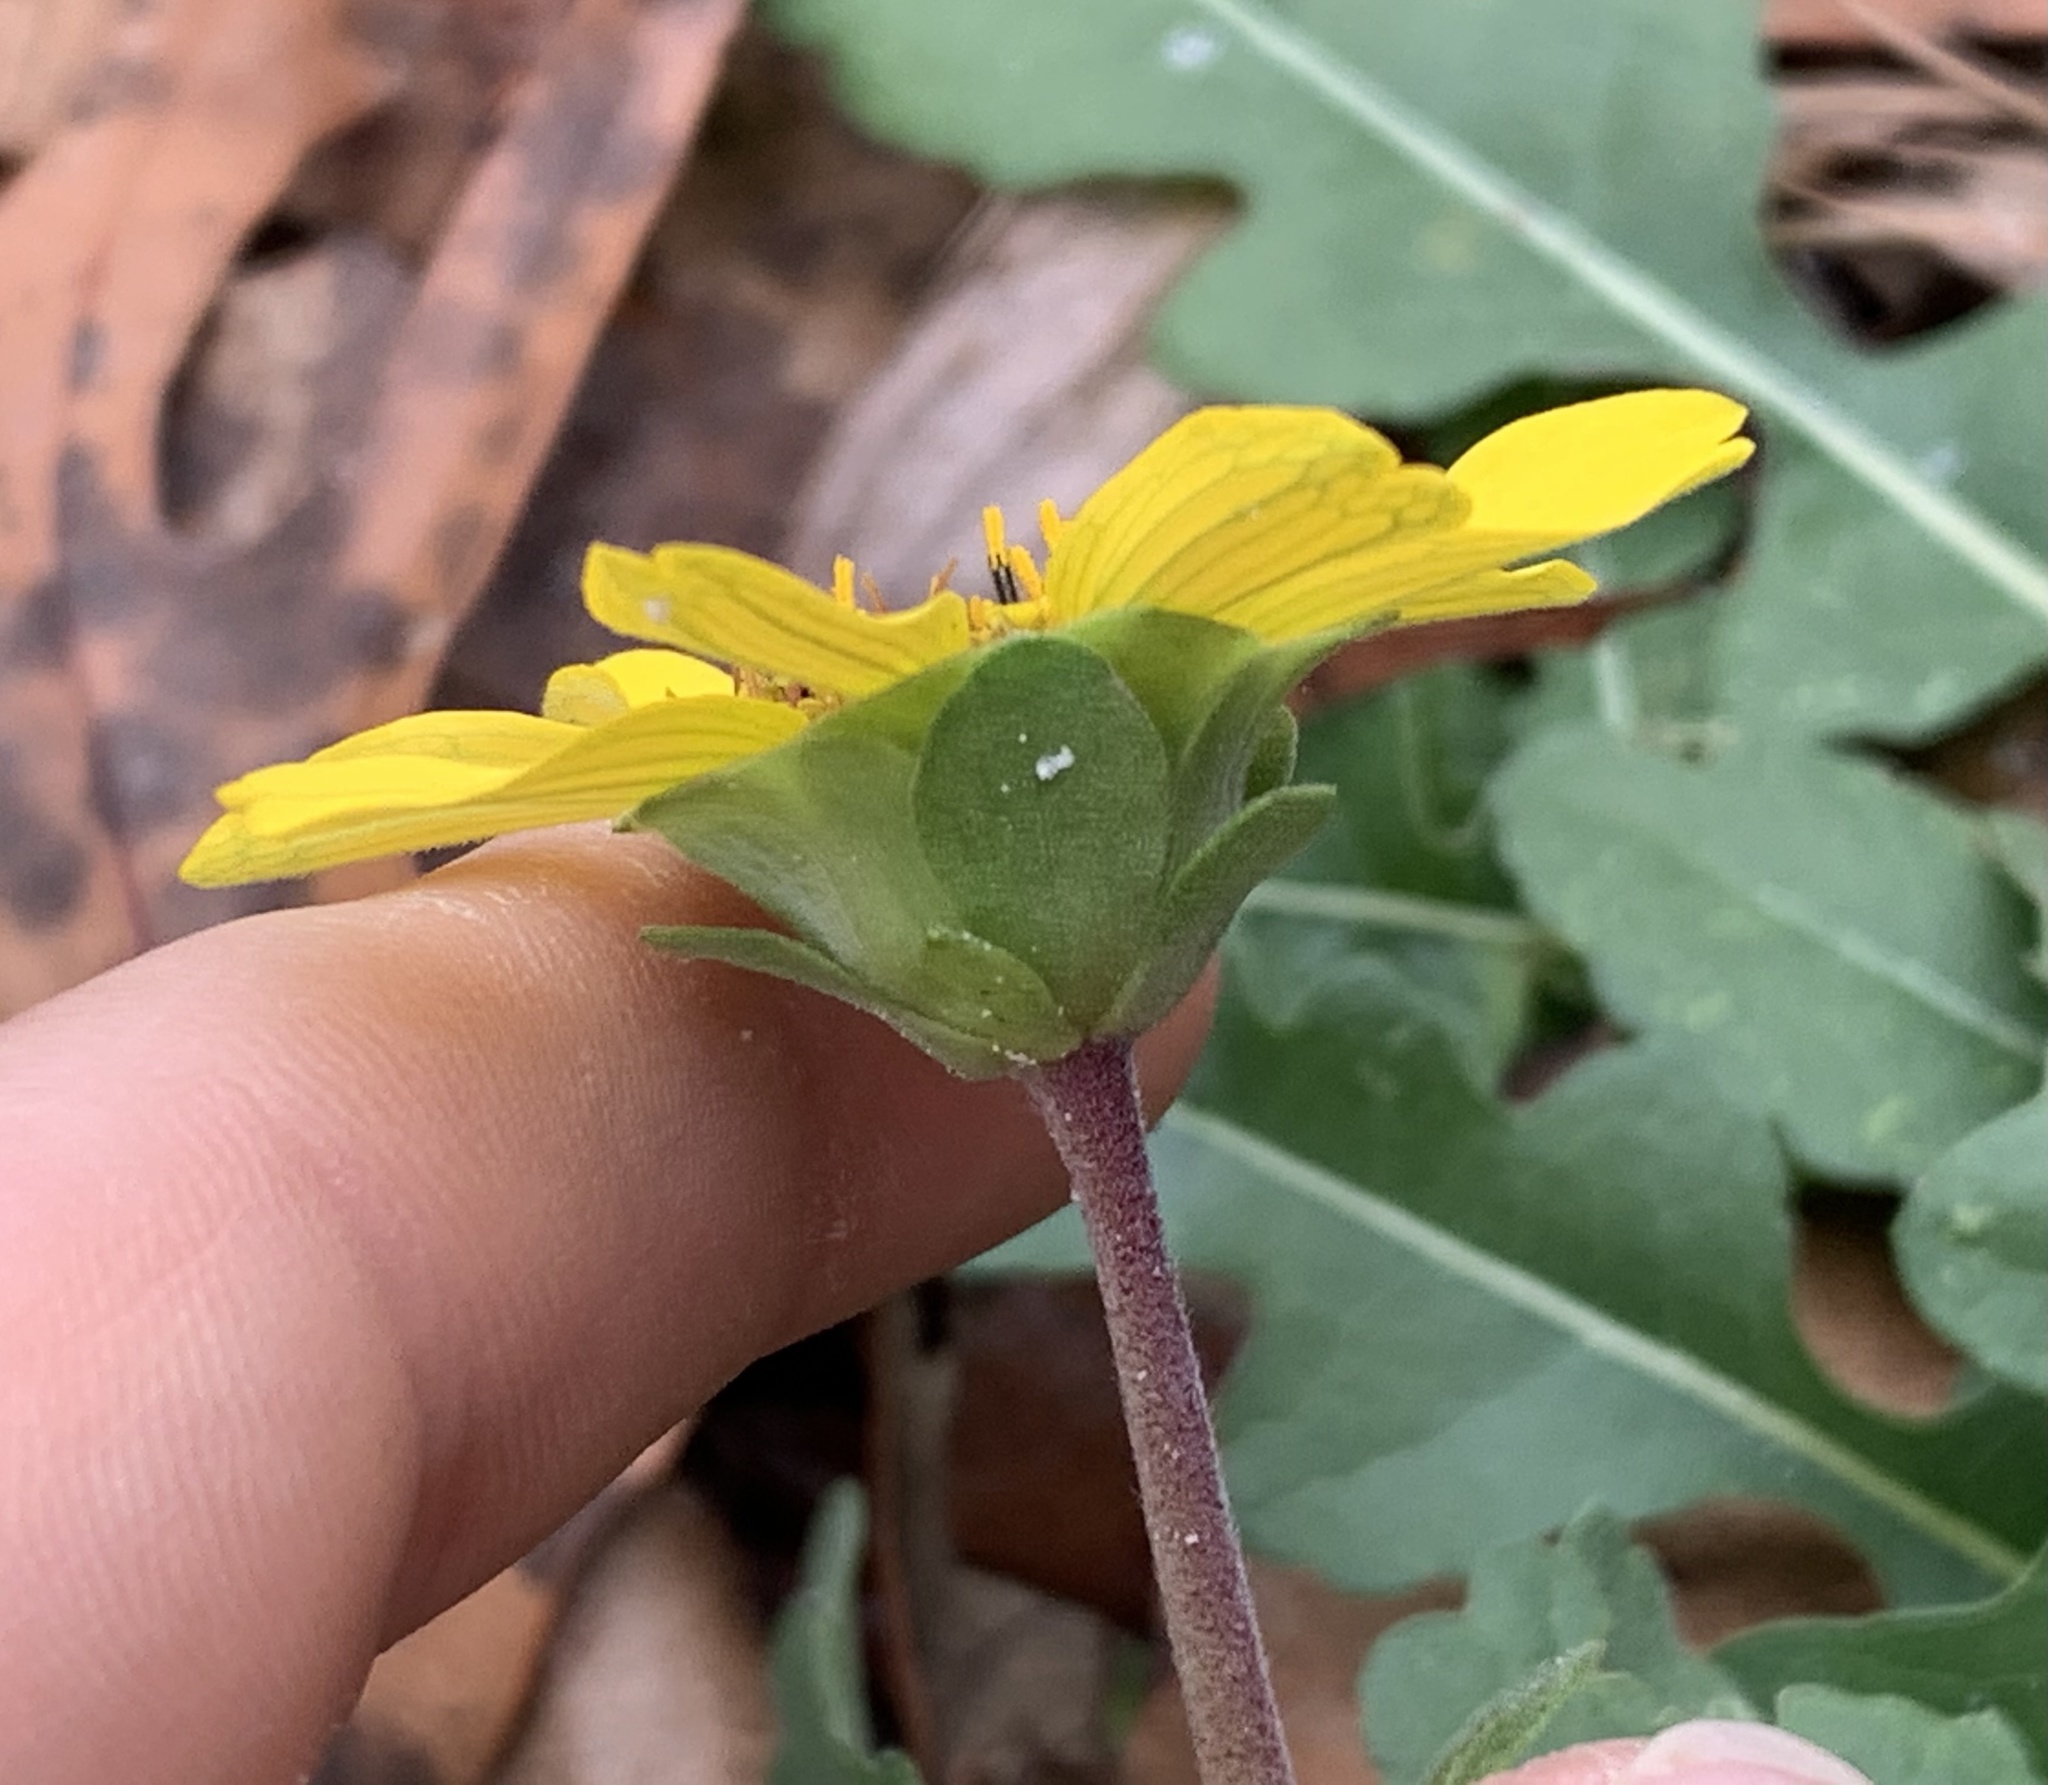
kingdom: Plantae
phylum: Tracheophyta
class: Magnoliopsida
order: Asterales
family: Asteraceae
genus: Berlandiera
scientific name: Berlandiera subacaulis
